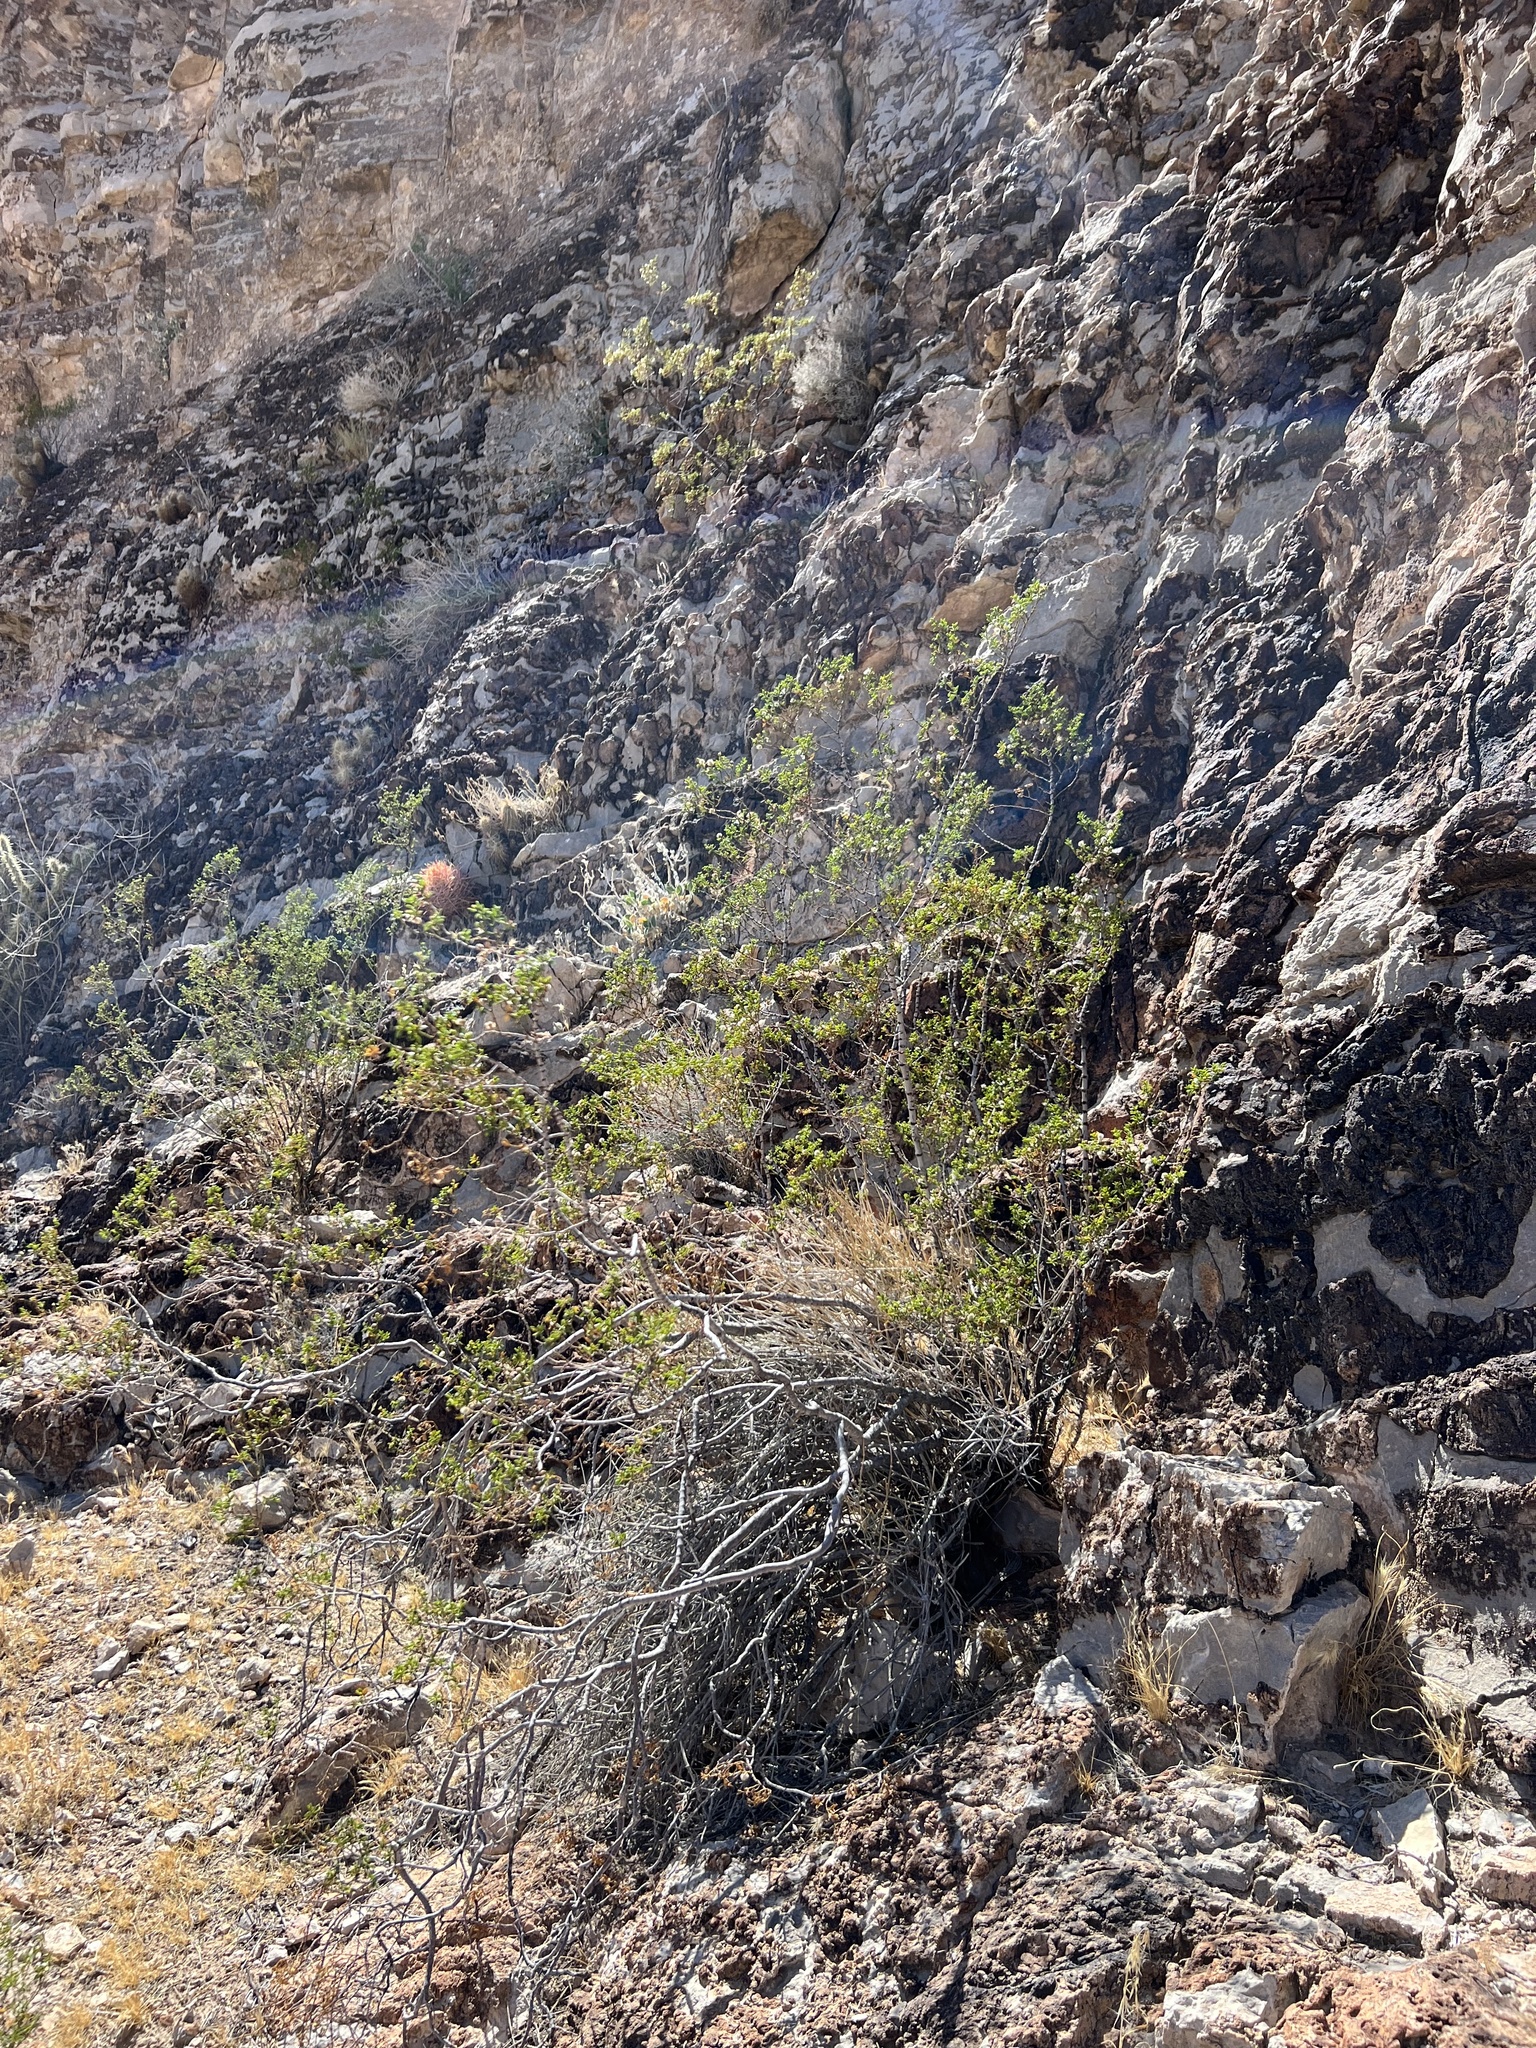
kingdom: Plantae
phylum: Tracheophyta
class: Magnoliopsida
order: Zygophyllales
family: Zygophyllaceae
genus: Larrea
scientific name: Larrea tridentata
